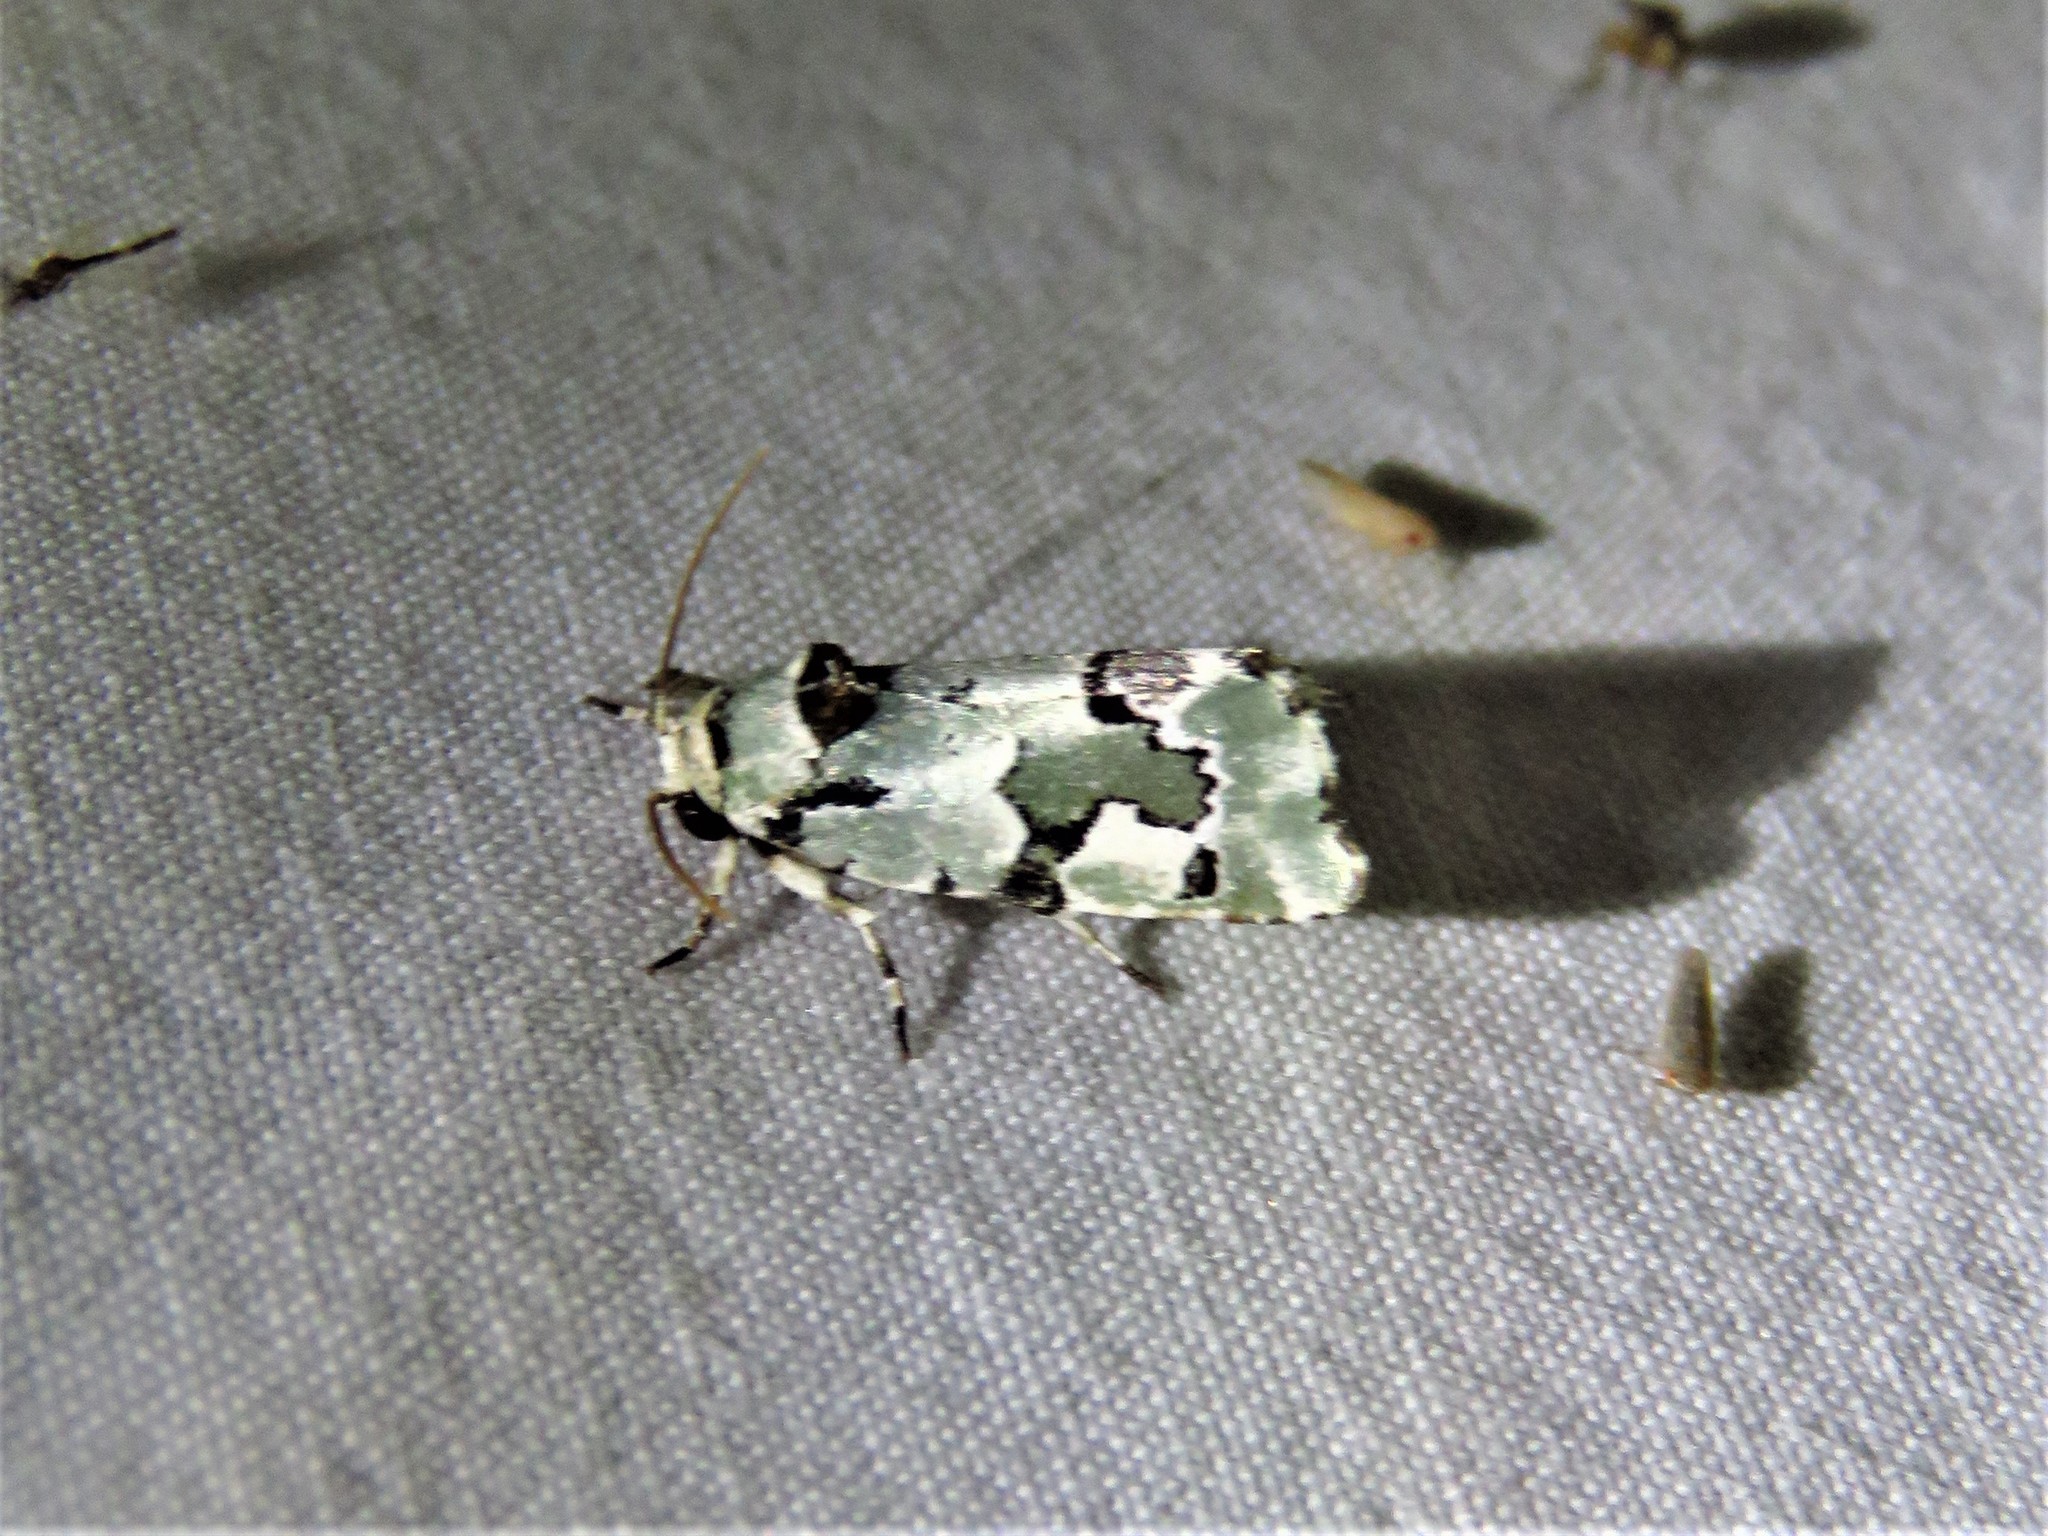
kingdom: Animalia
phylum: Arthropoda
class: Insecta
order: Lepidoptera
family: Noctuidae
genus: Emarginea
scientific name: Emarginea percara
